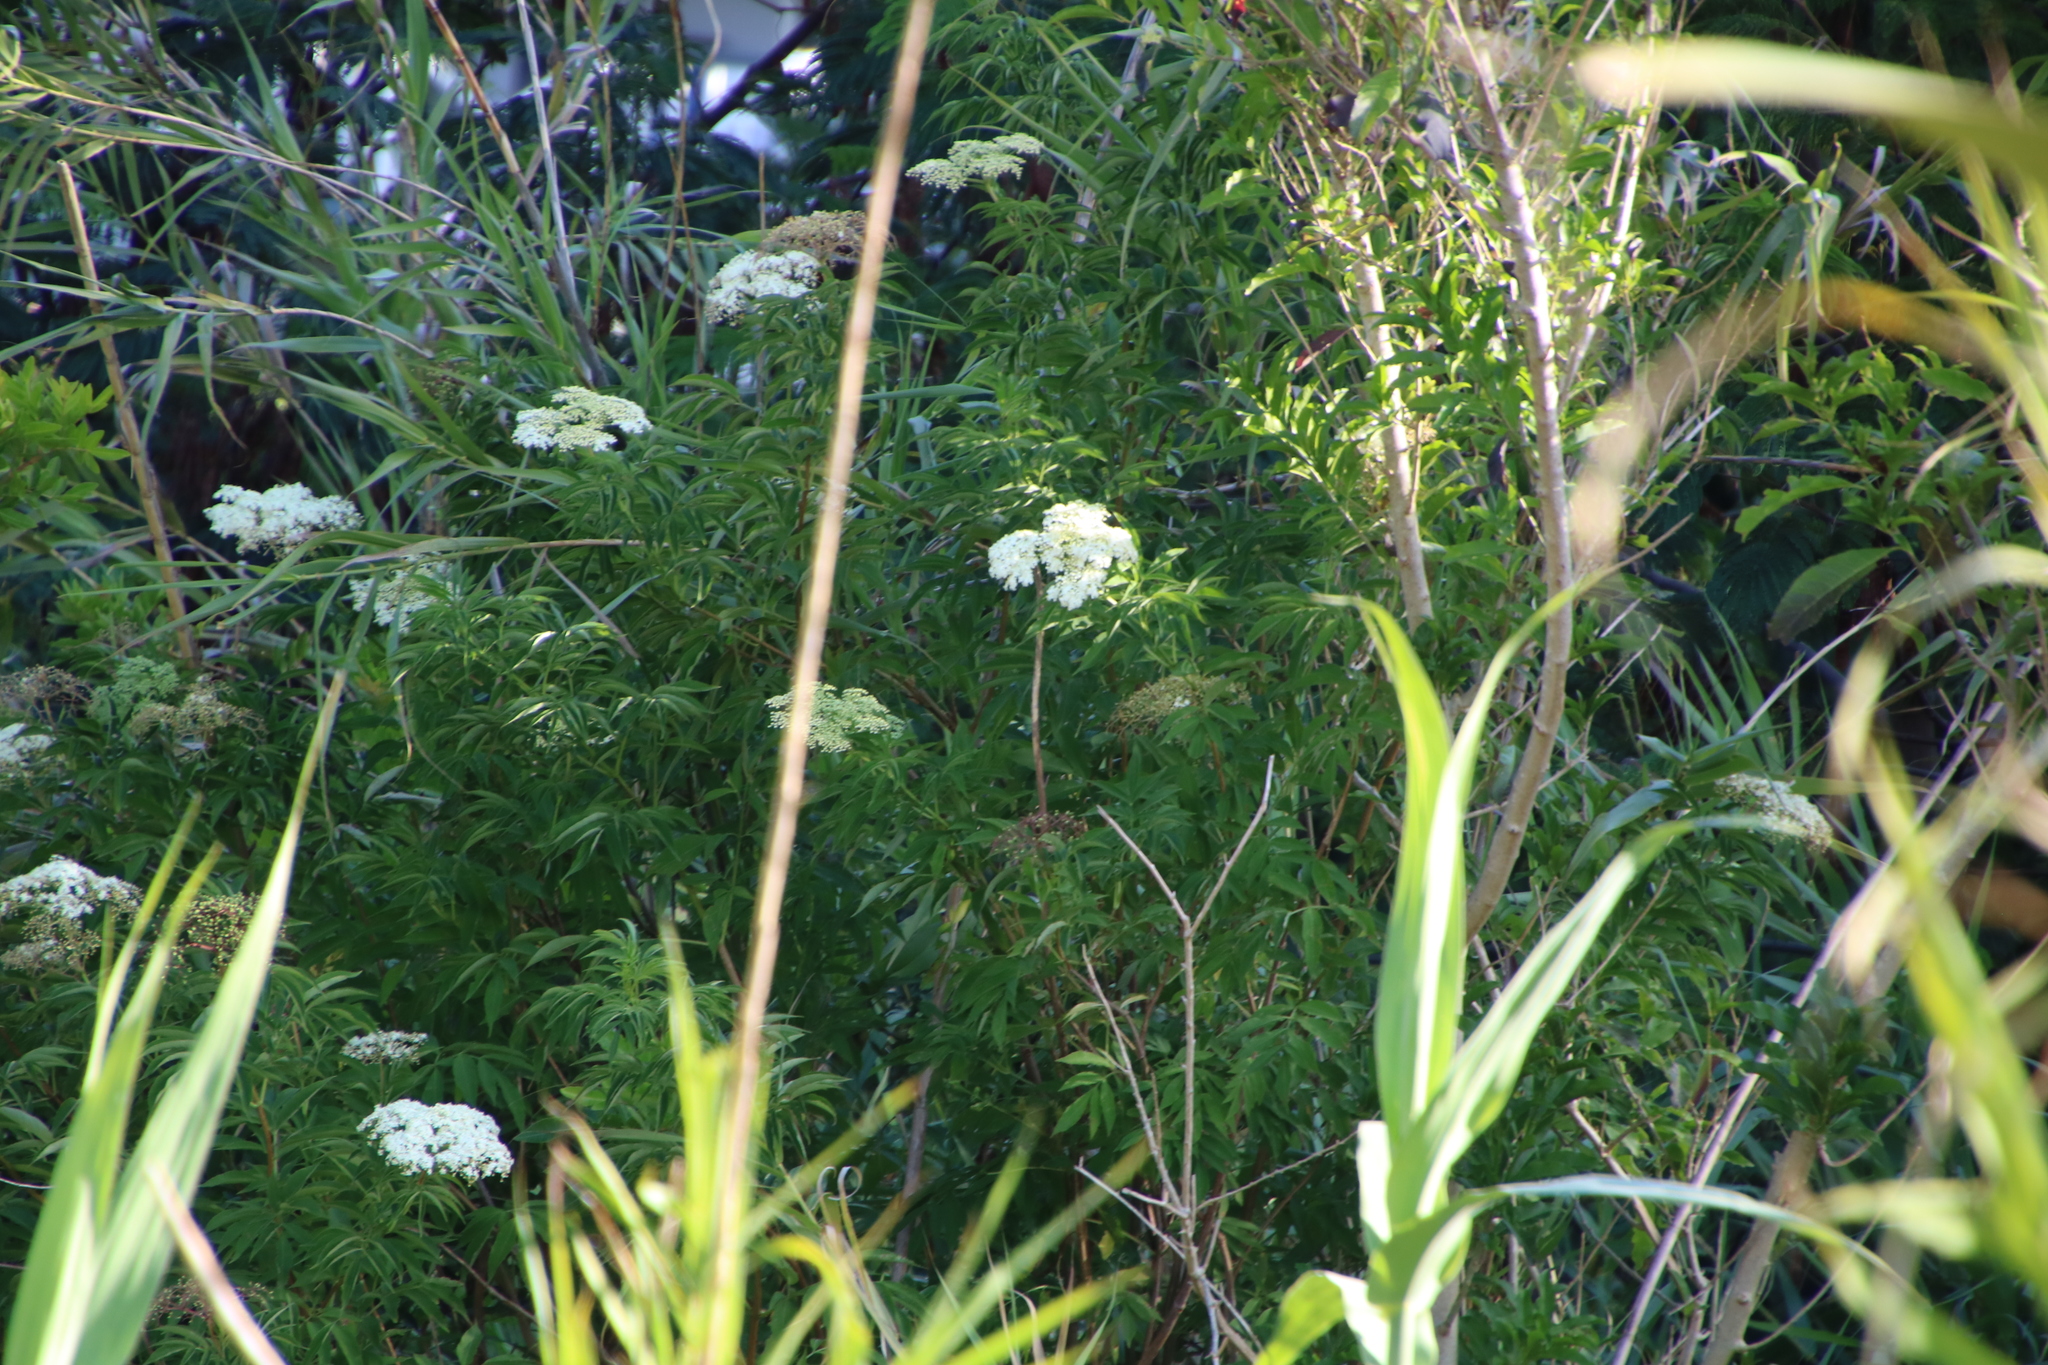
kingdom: Plantae
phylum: Tracheophyta
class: Magnoliopsida
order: Dipsacales
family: Viburnaceae
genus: Sambucus
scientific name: Sambucus nigra
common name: Elder
